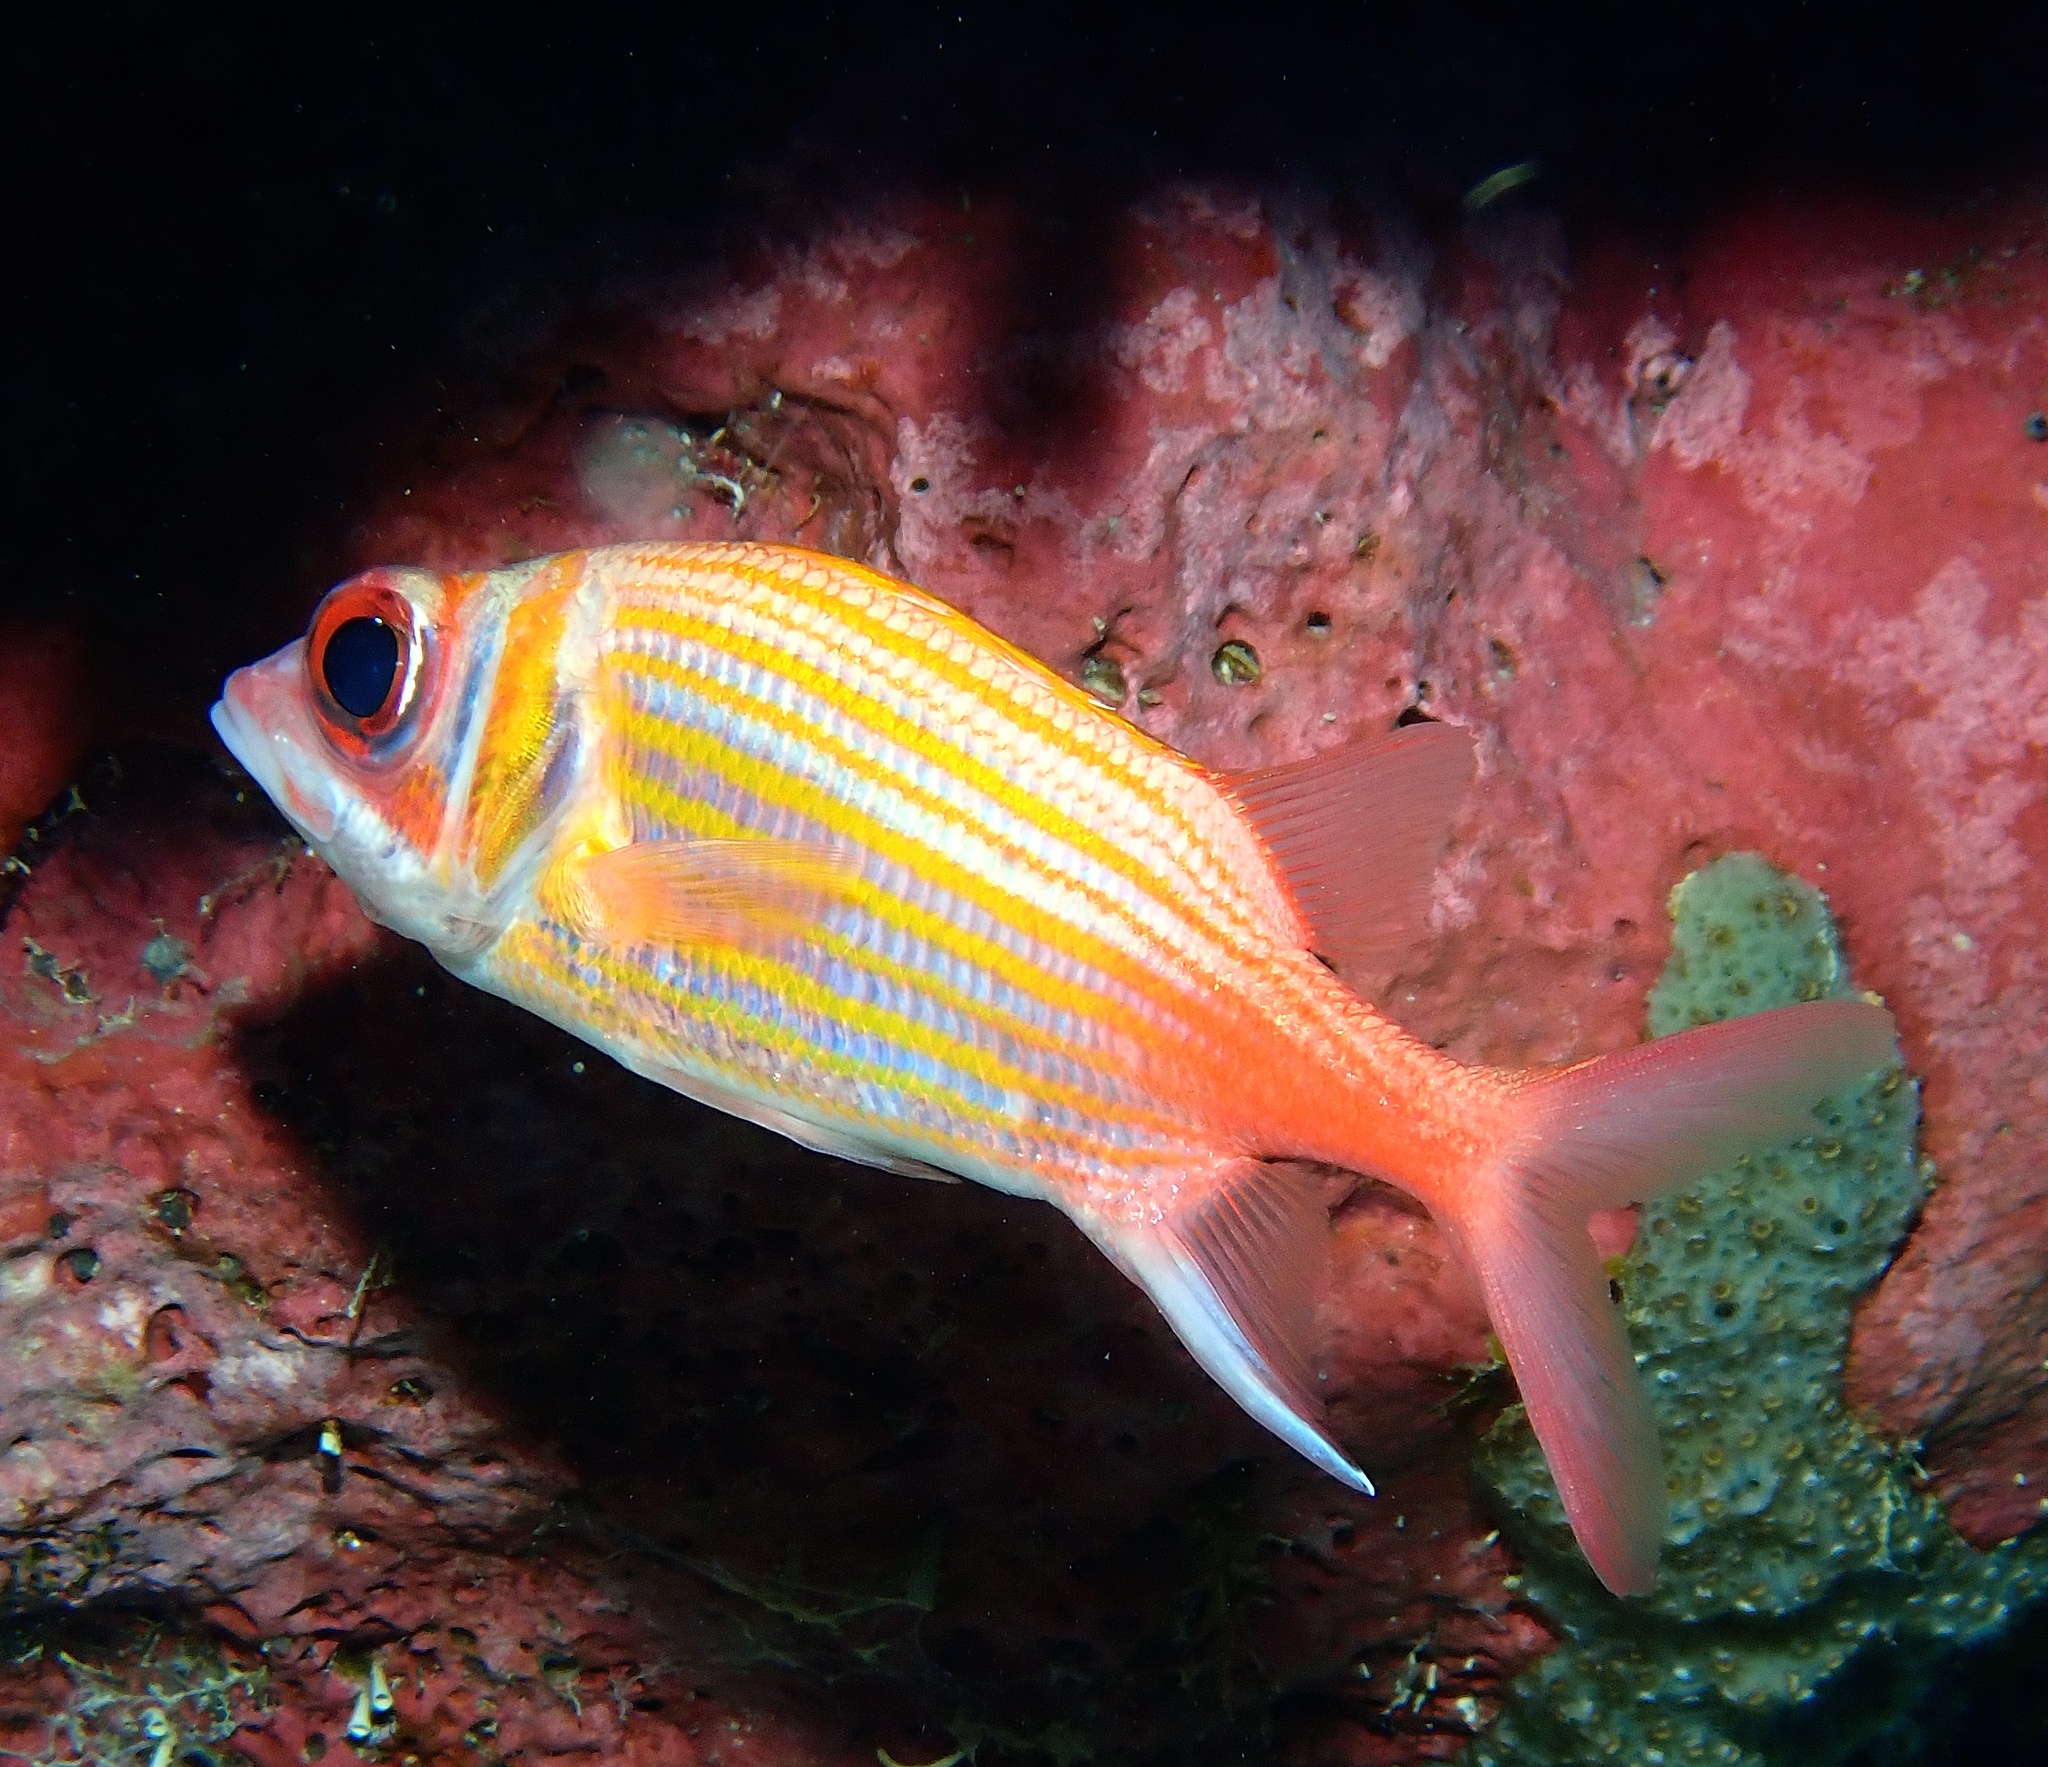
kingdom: Animalia
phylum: Chordata
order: Beryciformes
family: Holocentridae
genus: Neoniphon
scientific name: Neoniphon marianus
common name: Longjaw squirrelfish
